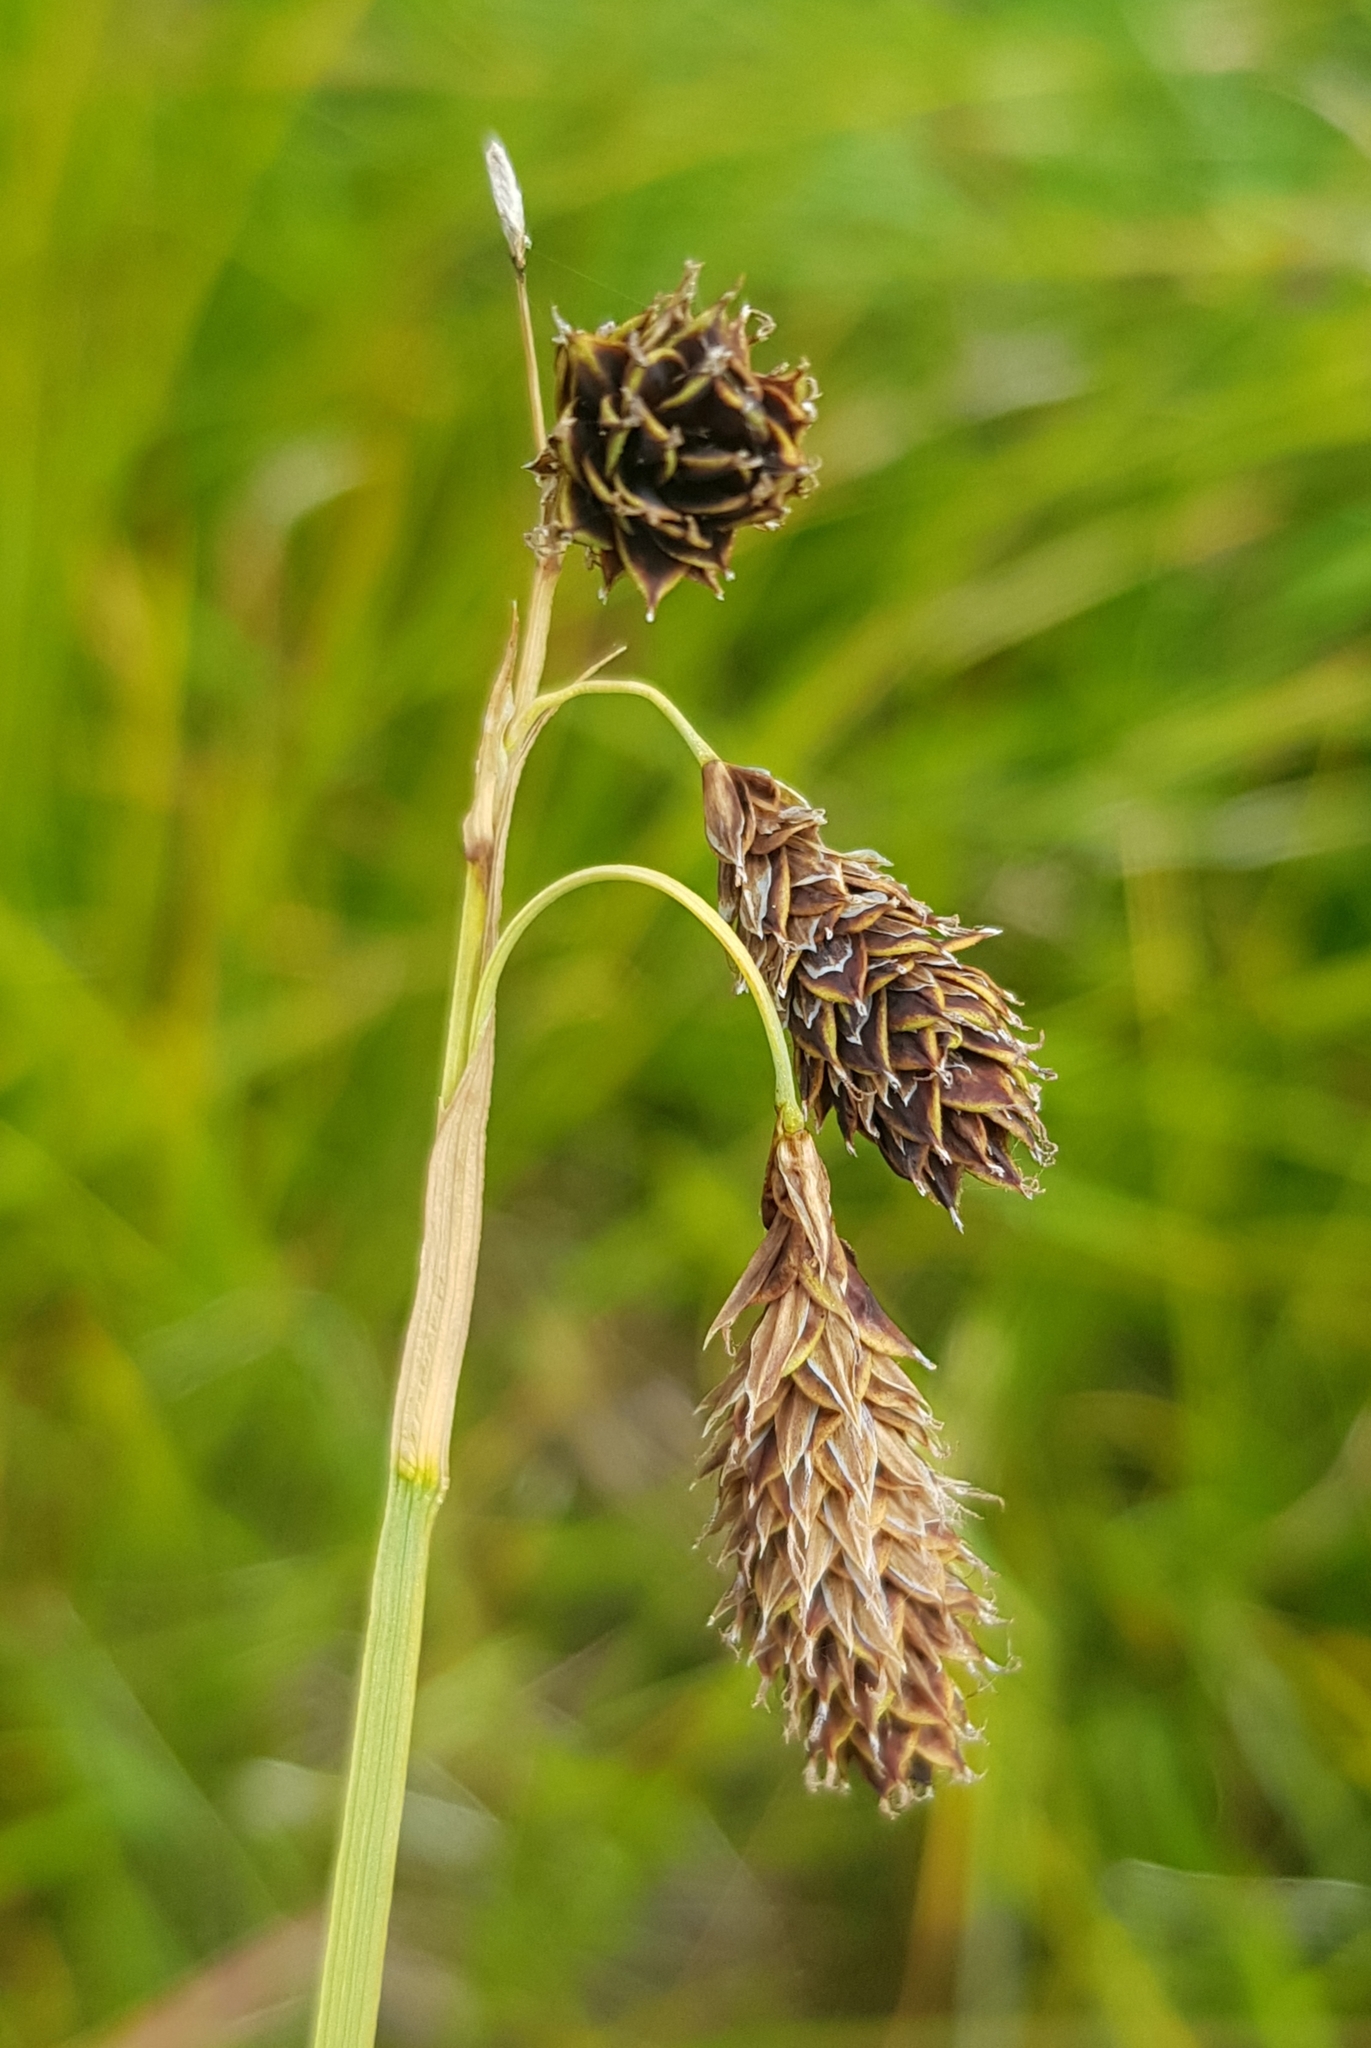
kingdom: Plantae
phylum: Tracheophyta
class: Liliopsida
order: Poales
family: Cyperaceae
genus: Carex
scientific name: Carex aterrima
